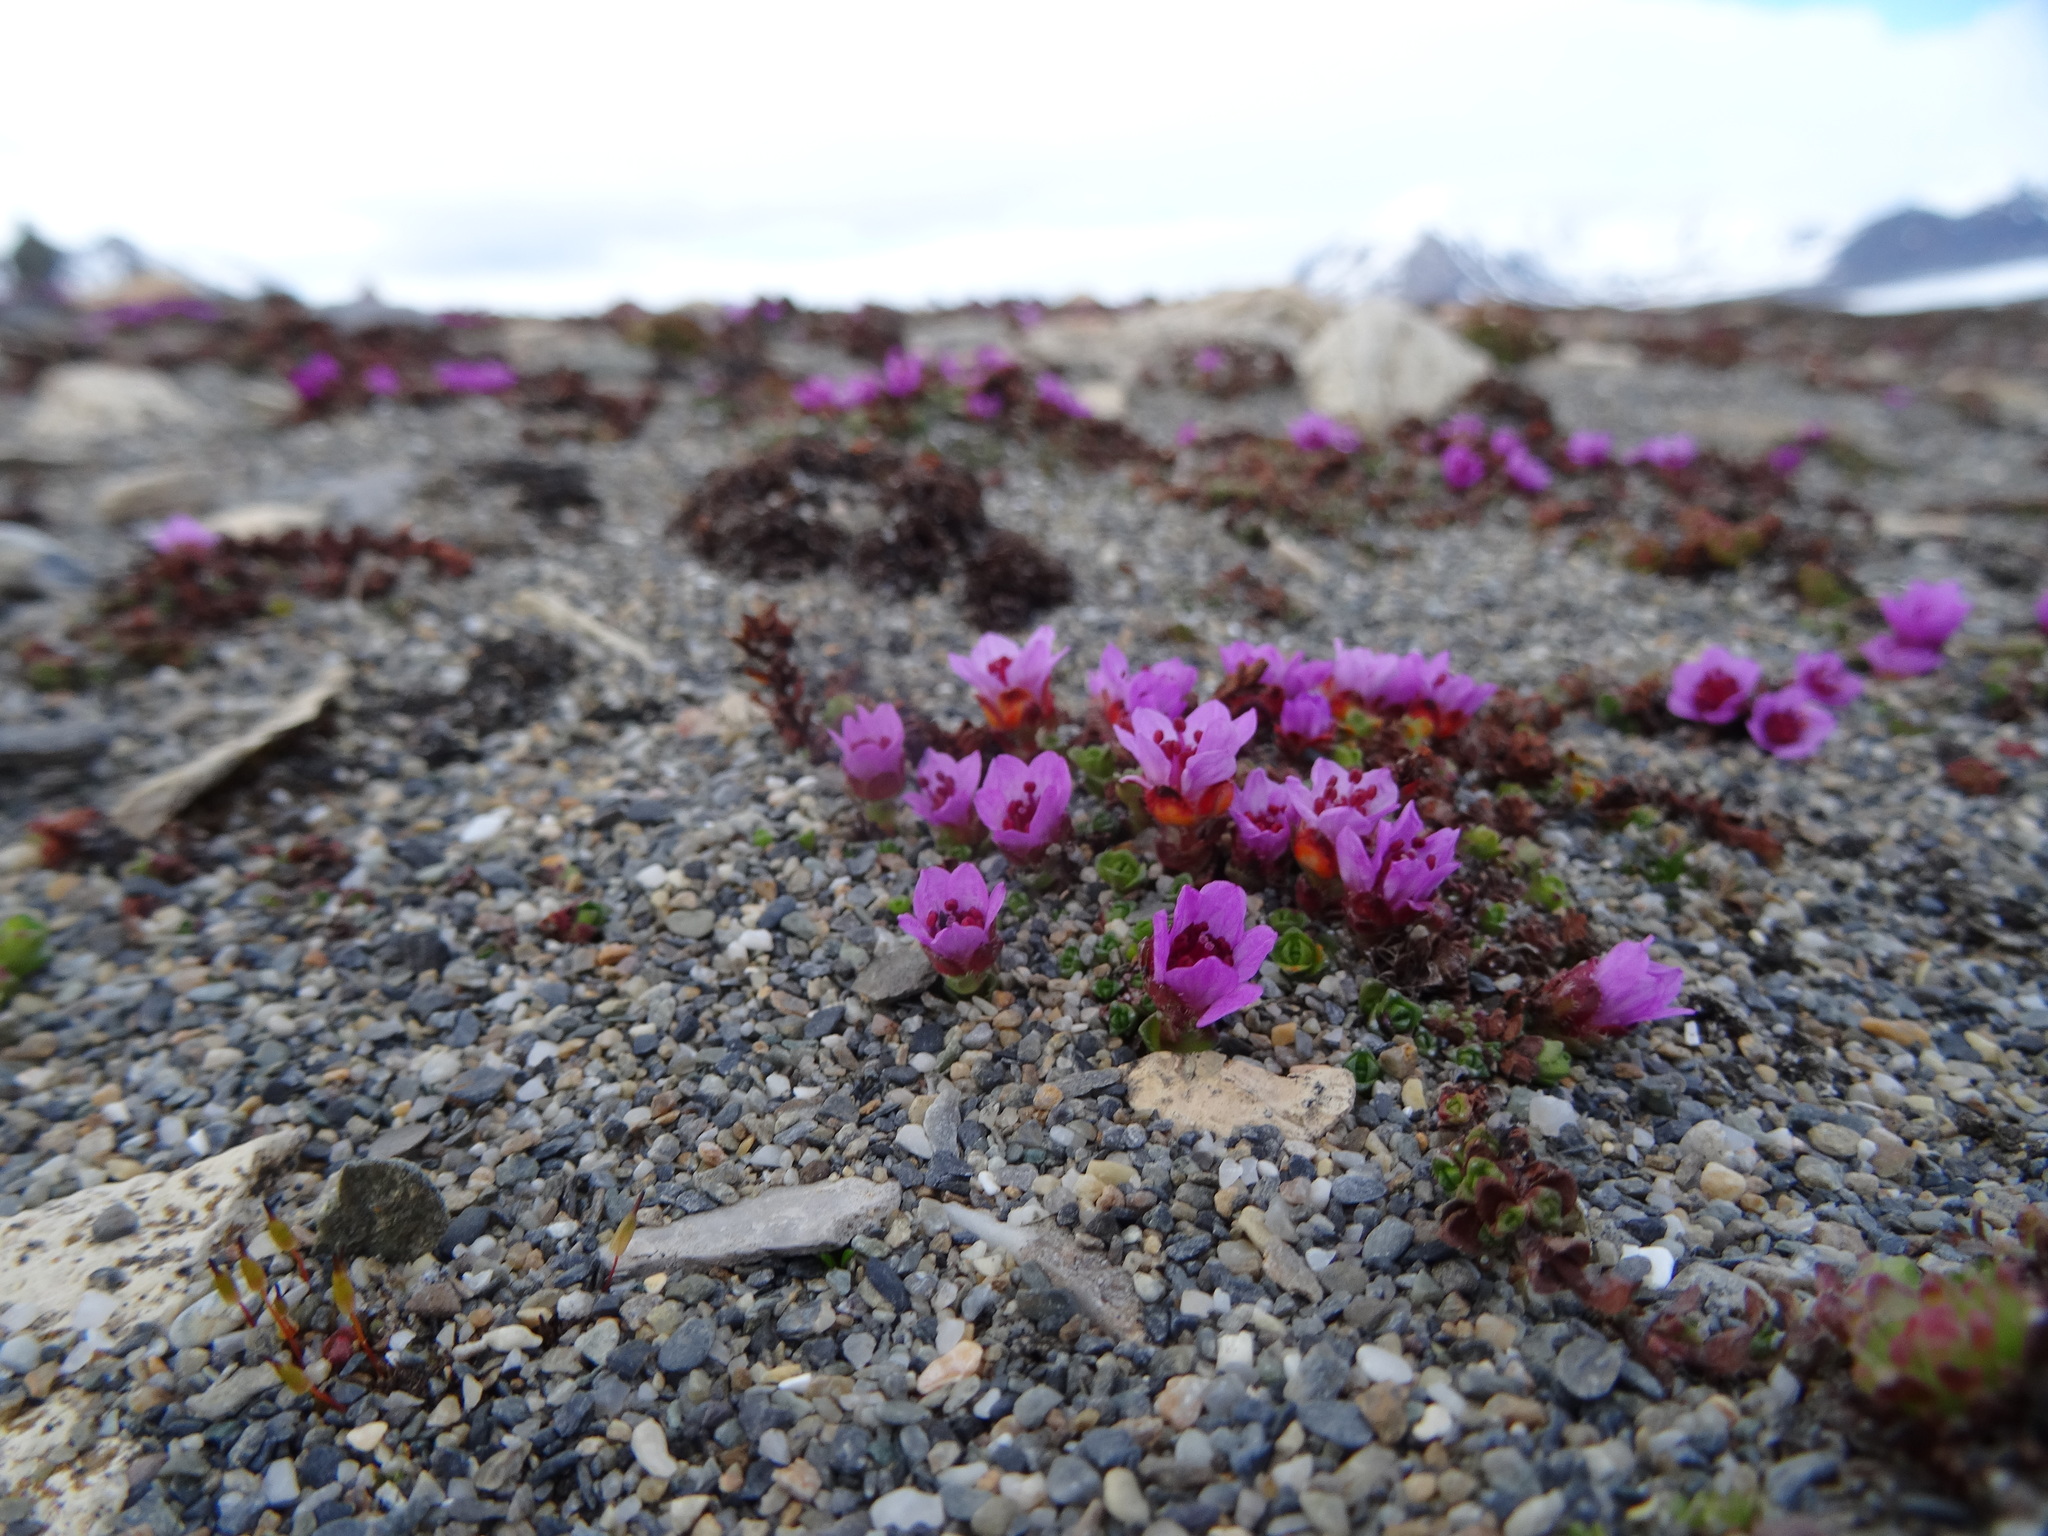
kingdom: Plantae
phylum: Tracheophyta
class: Magnoliopsida
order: Saxifragales
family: Saxifragaceae
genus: Saxifraga
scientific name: Saxifraga oppositifolia
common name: Purple saxifrage
